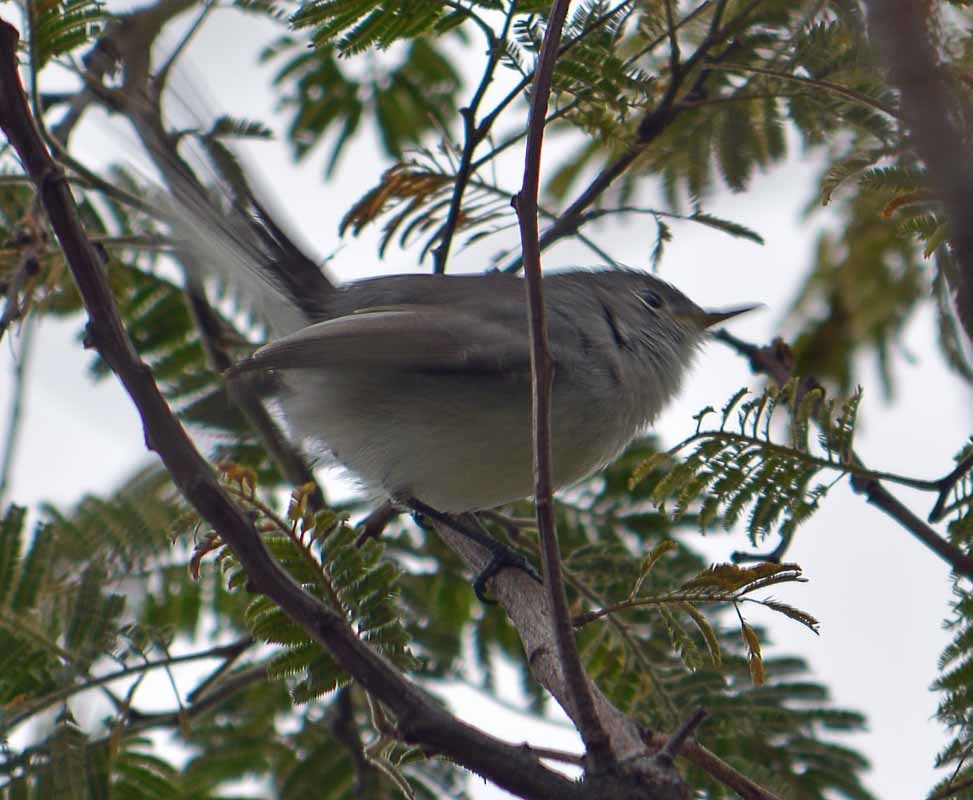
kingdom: Animalia
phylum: Chordata
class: Aves
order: Passeriformes
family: Polioptilidae
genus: Polioptila
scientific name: Polioptila caerulea
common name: Blue-gray gnatcatcher
